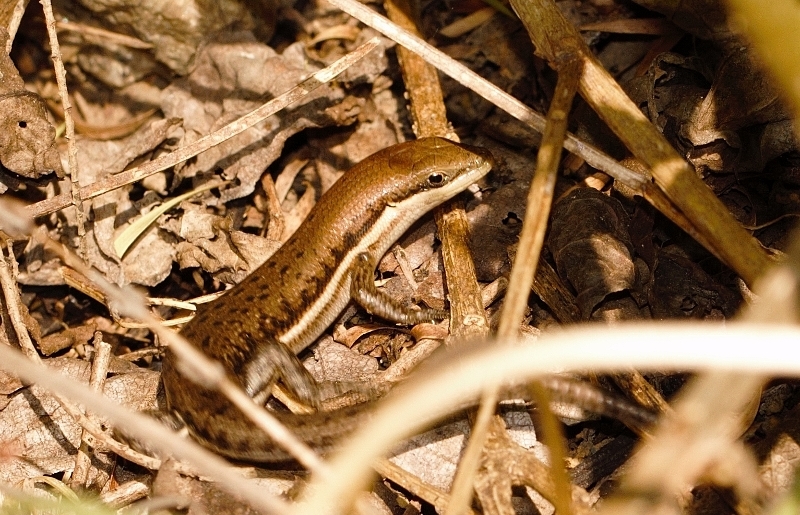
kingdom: Animalia
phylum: Chordata
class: Squamata
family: Scincidae
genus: Trachylepis
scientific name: Trachylepis varia
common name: Eastern variable skink
